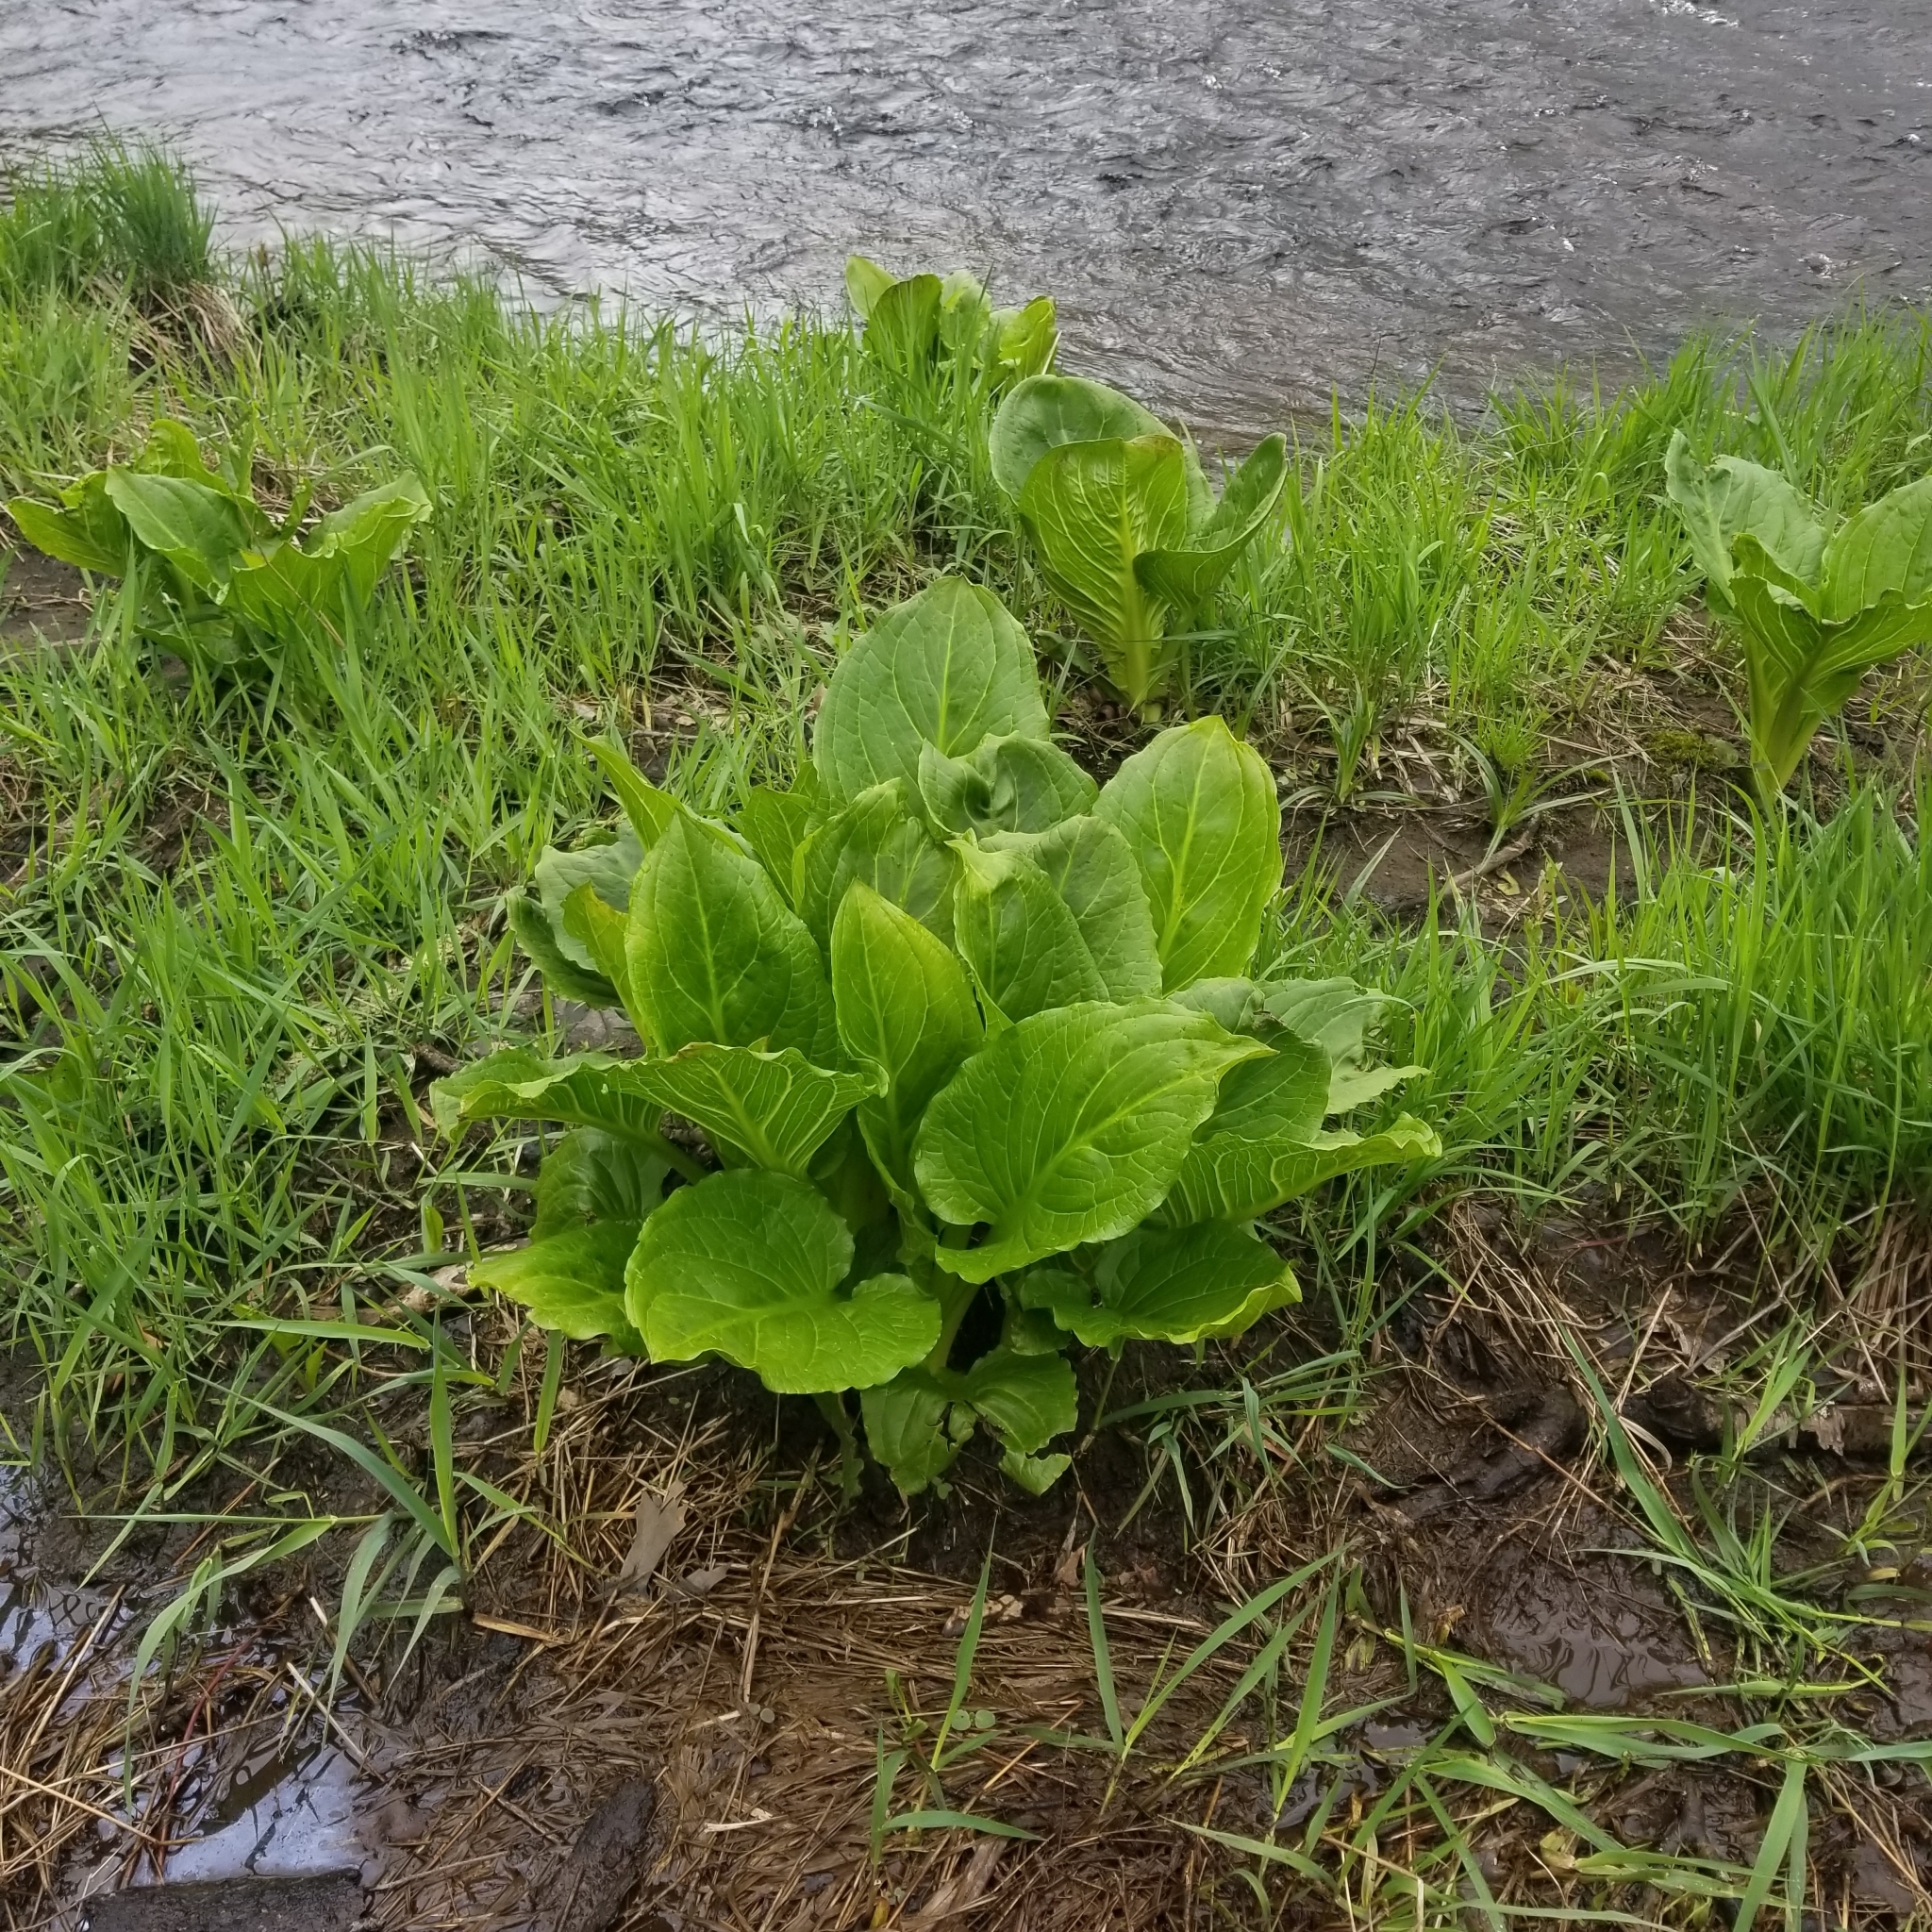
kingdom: Plantae
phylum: Tracheophyta
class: Liliopsida
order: Alismatales
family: Araceae
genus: Symplocarpus
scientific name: Symplocarpus foetidus
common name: Eastern skunk cabbage
